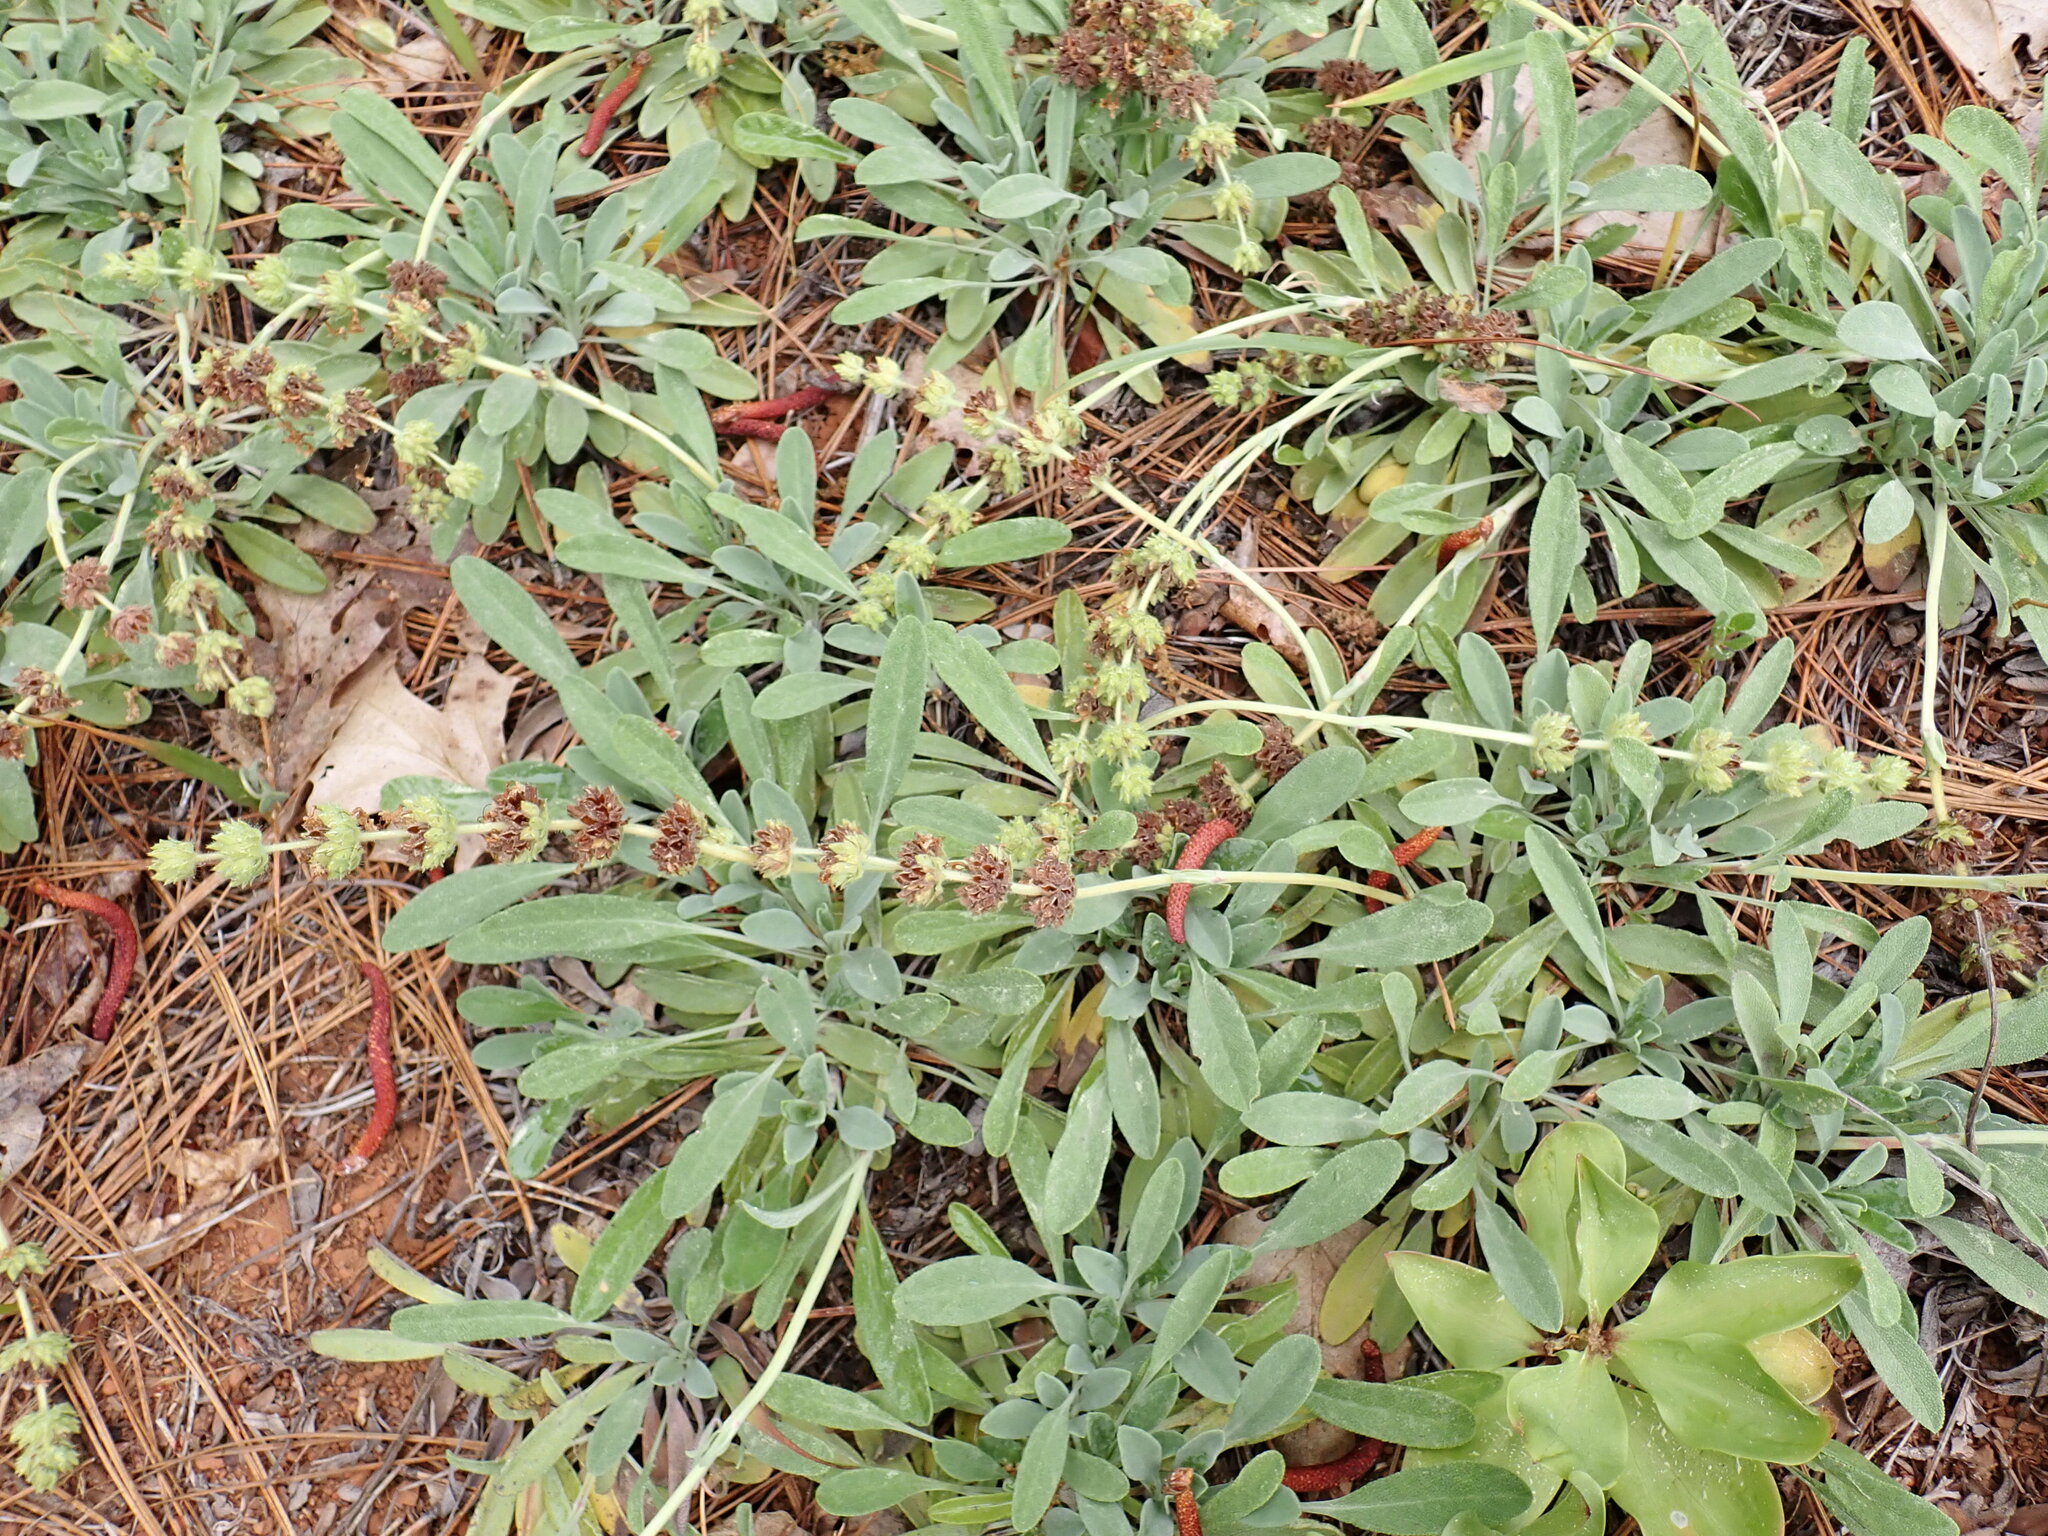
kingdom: Plantae
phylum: Tracheophyta
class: Magnoliopsida
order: Lamiales
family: Lamiaceae
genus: Salvia
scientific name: Salvia sonomensis
